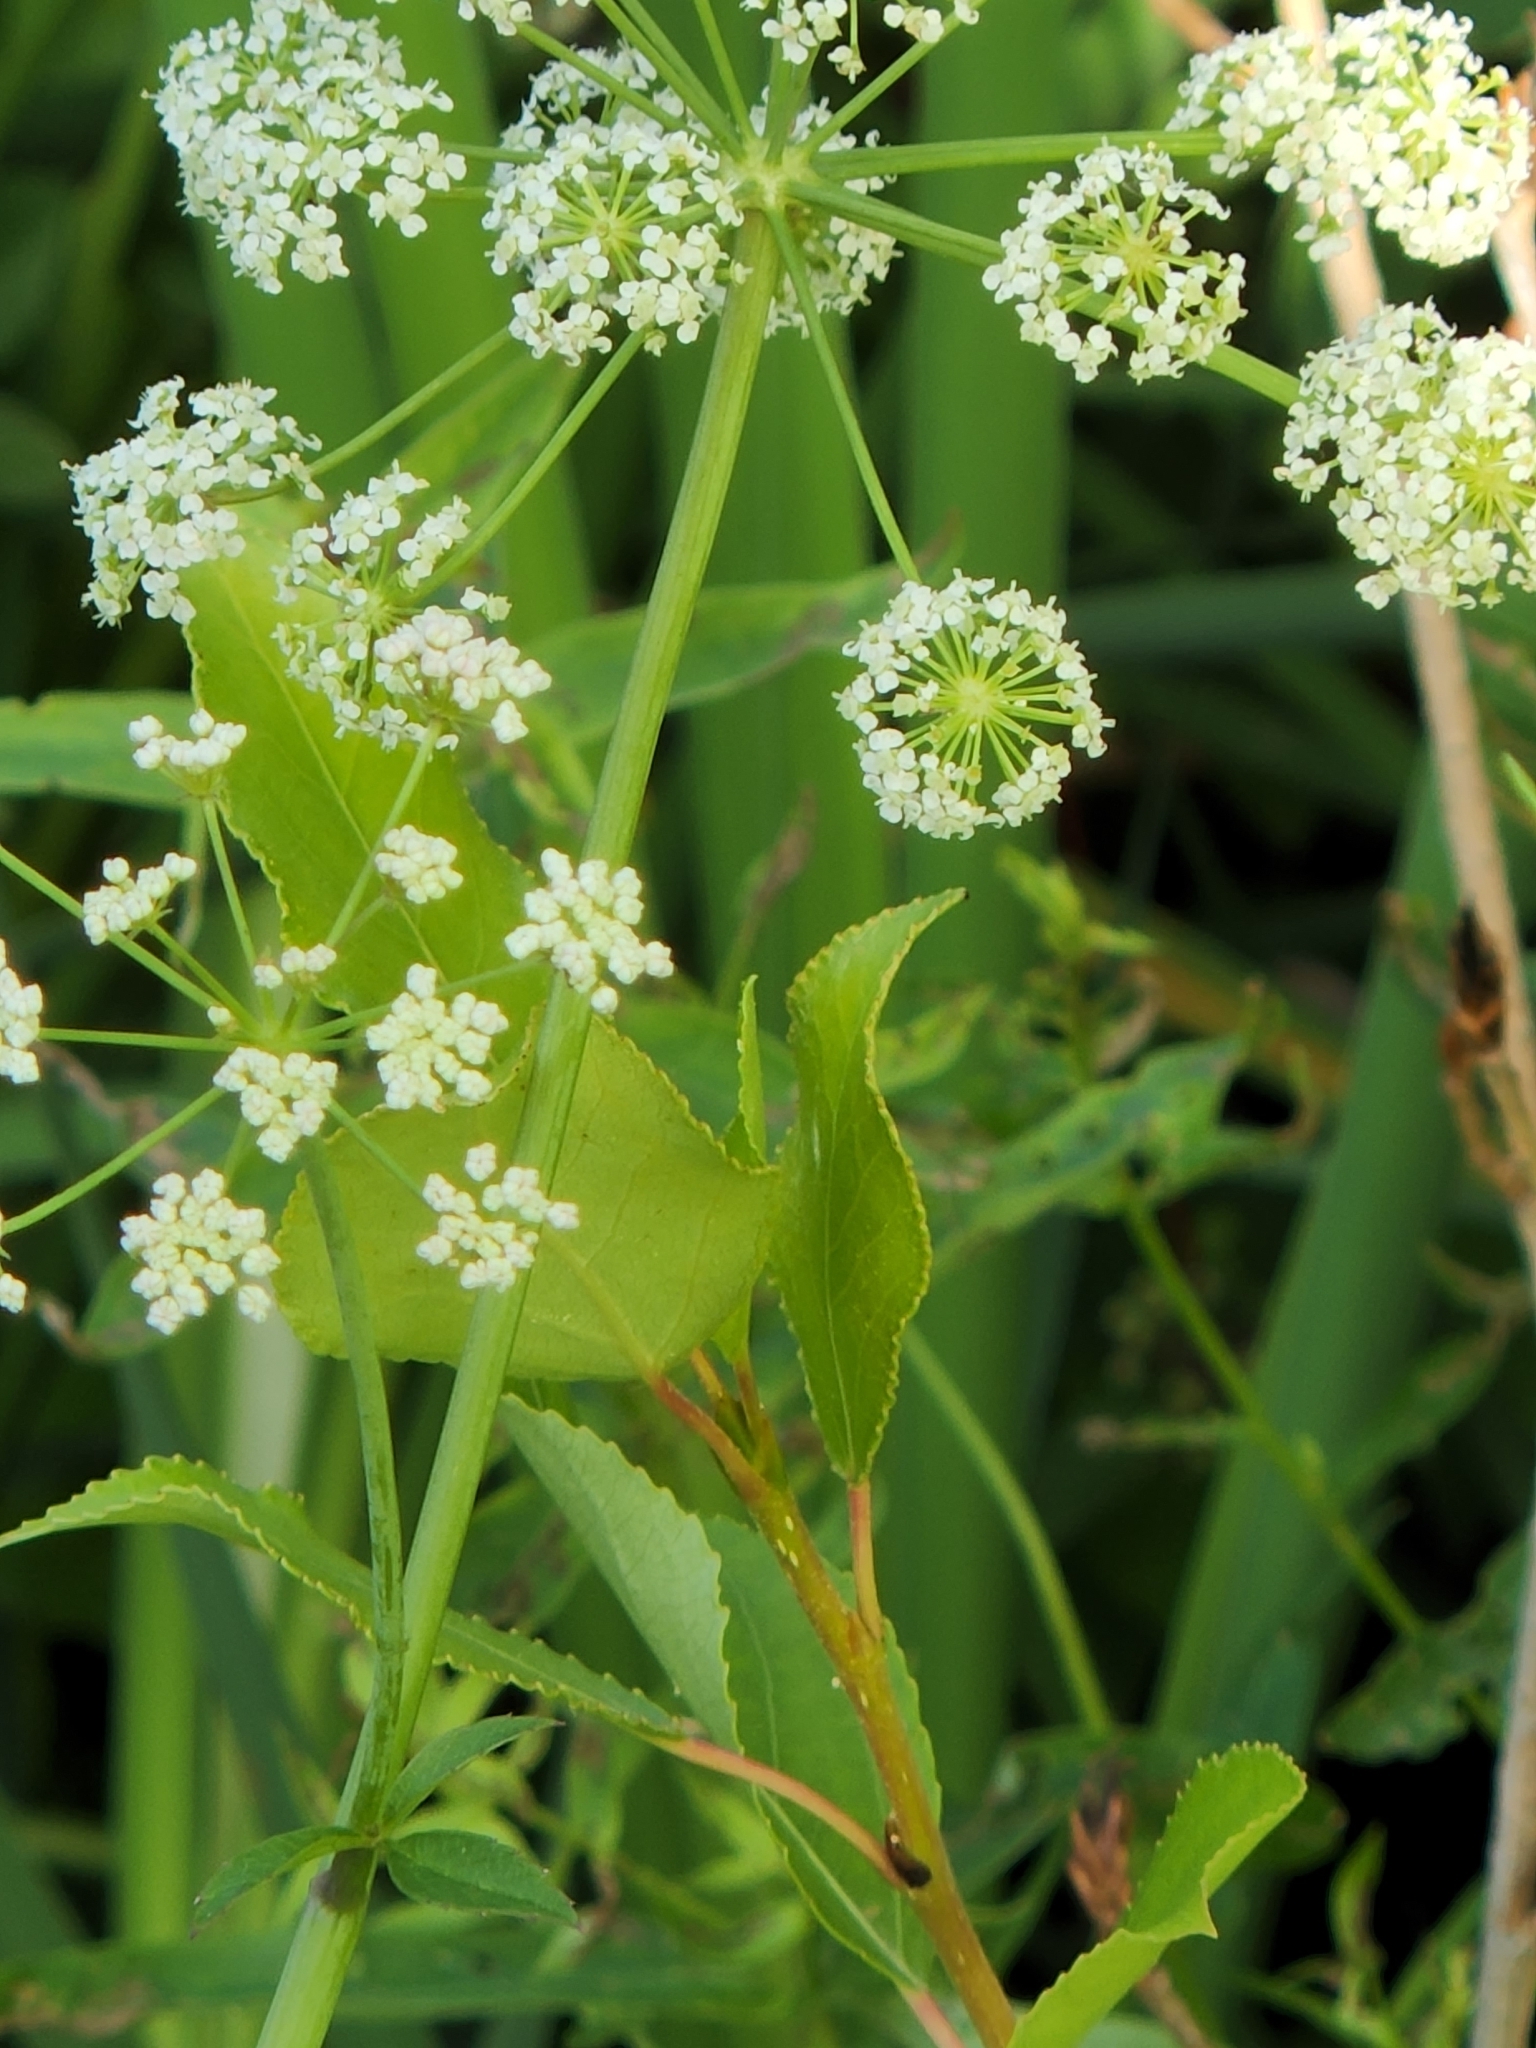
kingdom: Plantae
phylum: Tracheophyta
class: Magnoliopsida
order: Apiales
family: Apiaceae
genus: Cicuta
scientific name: Cicuta douglasii
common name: Western water-hemlock
